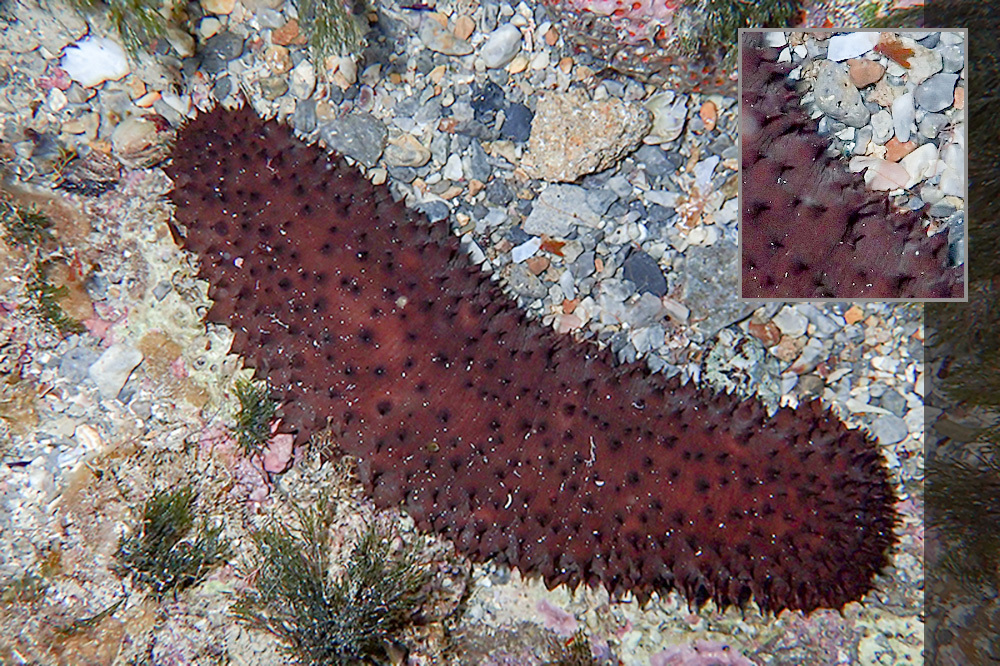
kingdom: Animalia
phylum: Echinodermata
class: Holothuroidea
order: Holothuriida
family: Holothuriidae
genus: Holothuria
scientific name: Holothuria sanctori
